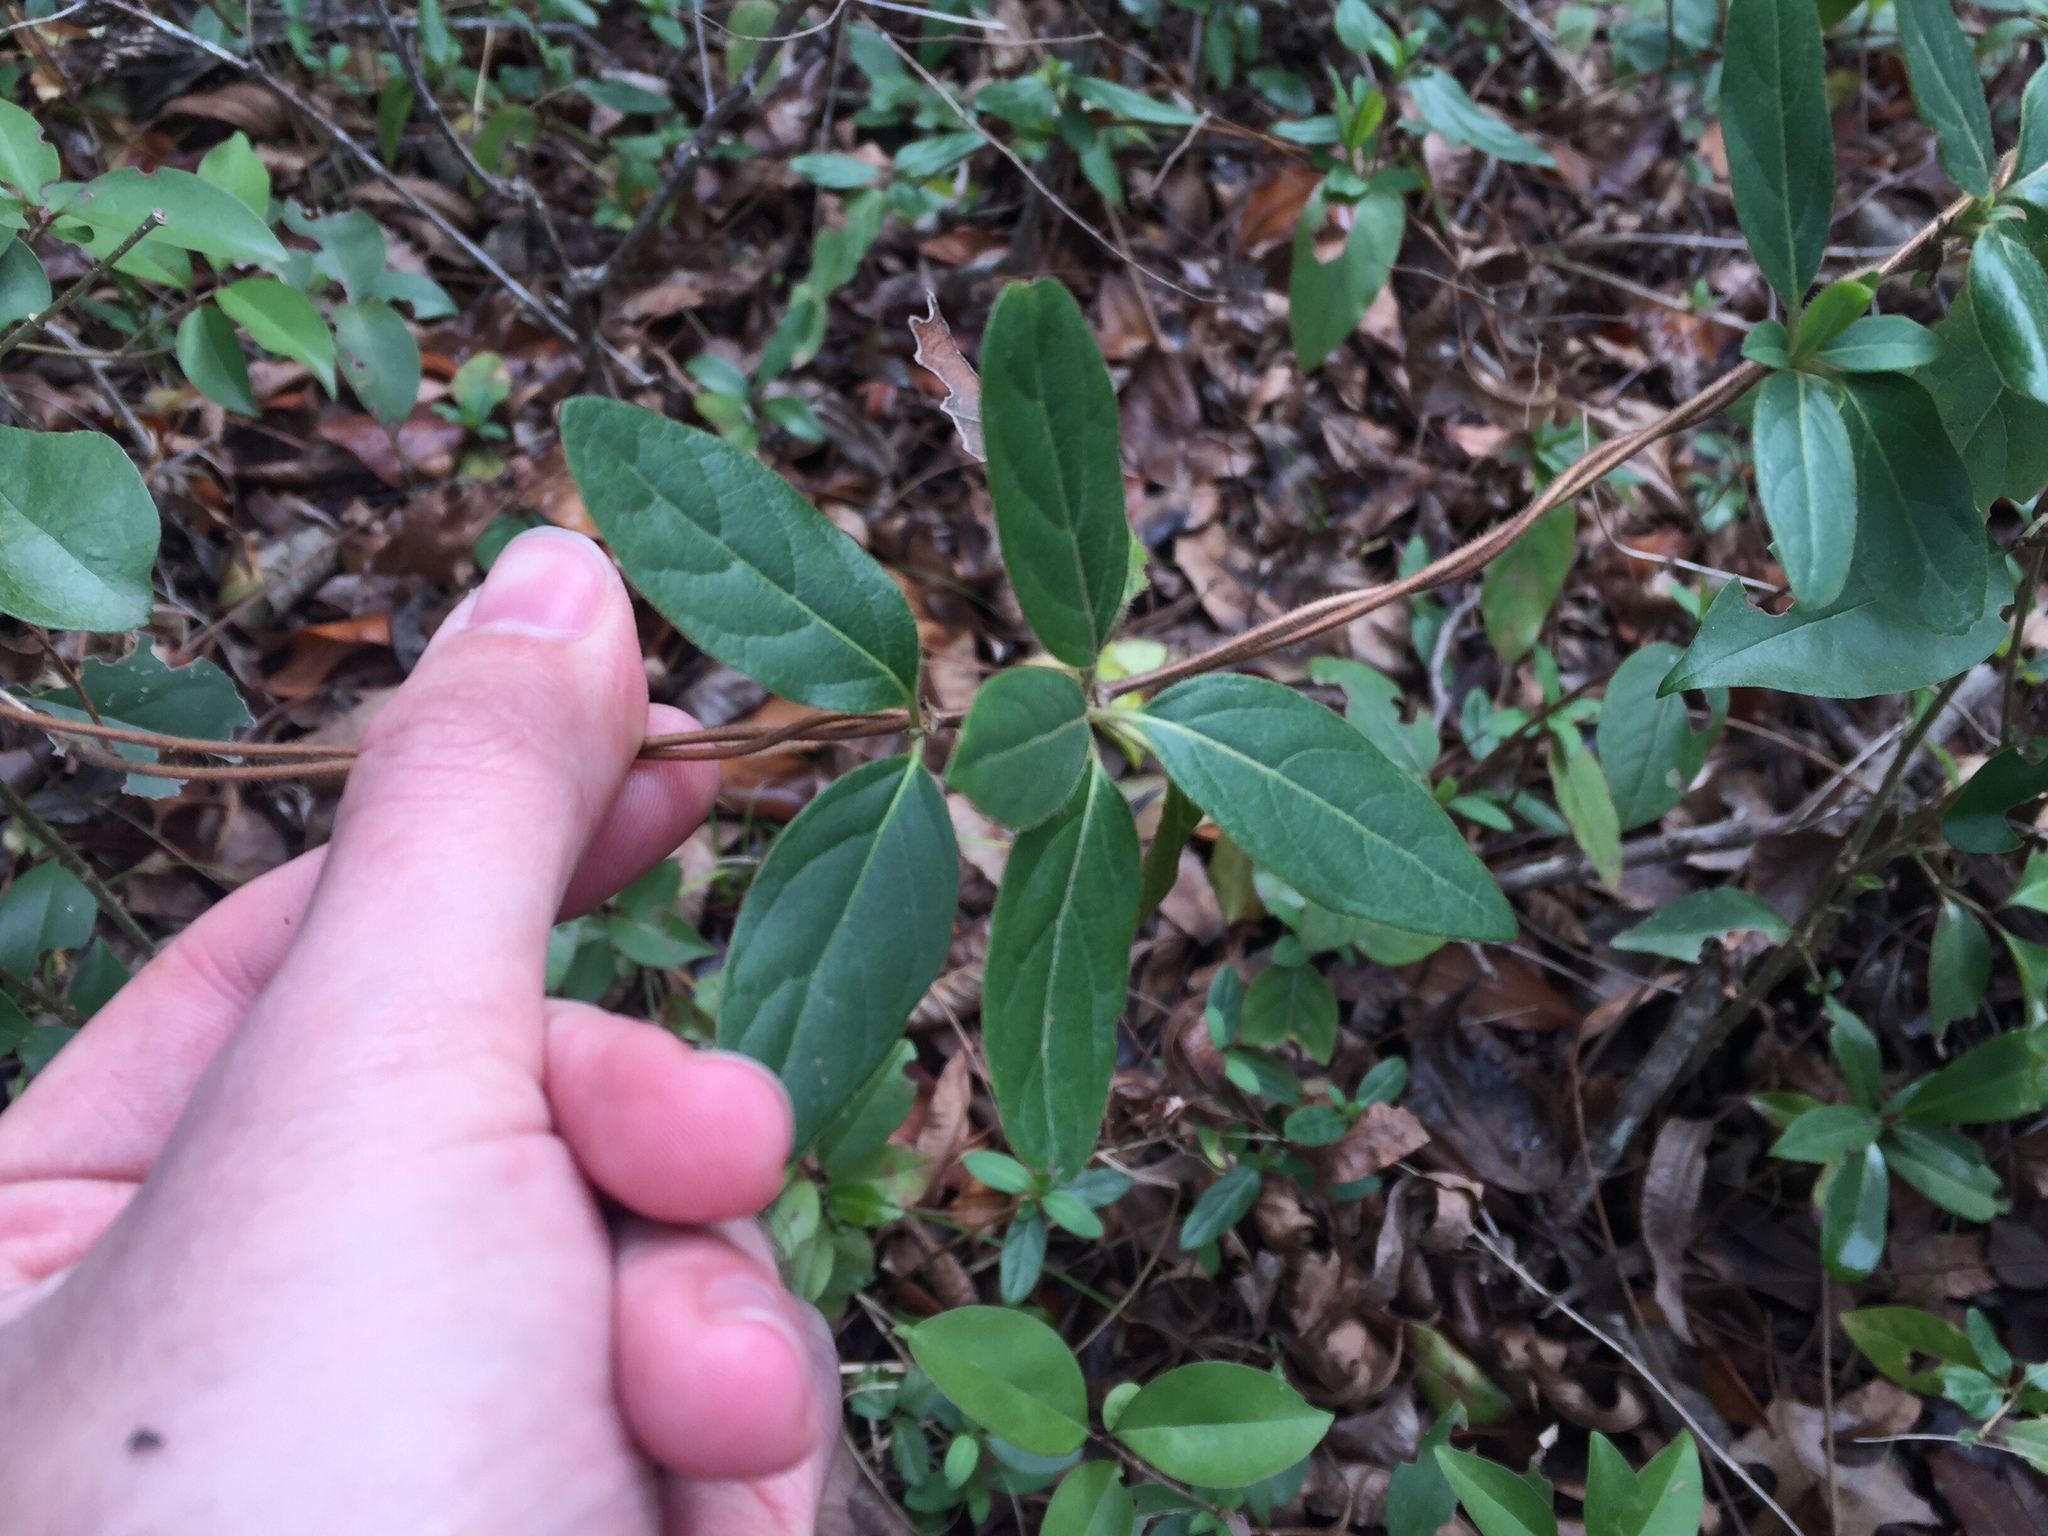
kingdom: Plantae
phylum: Tracheophyta
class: Magnoliopsida
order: Dipsacales
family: Caprifoliaceae
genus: Lonicera
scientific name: Lonicera japonica
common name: Japanese honeysuckle
